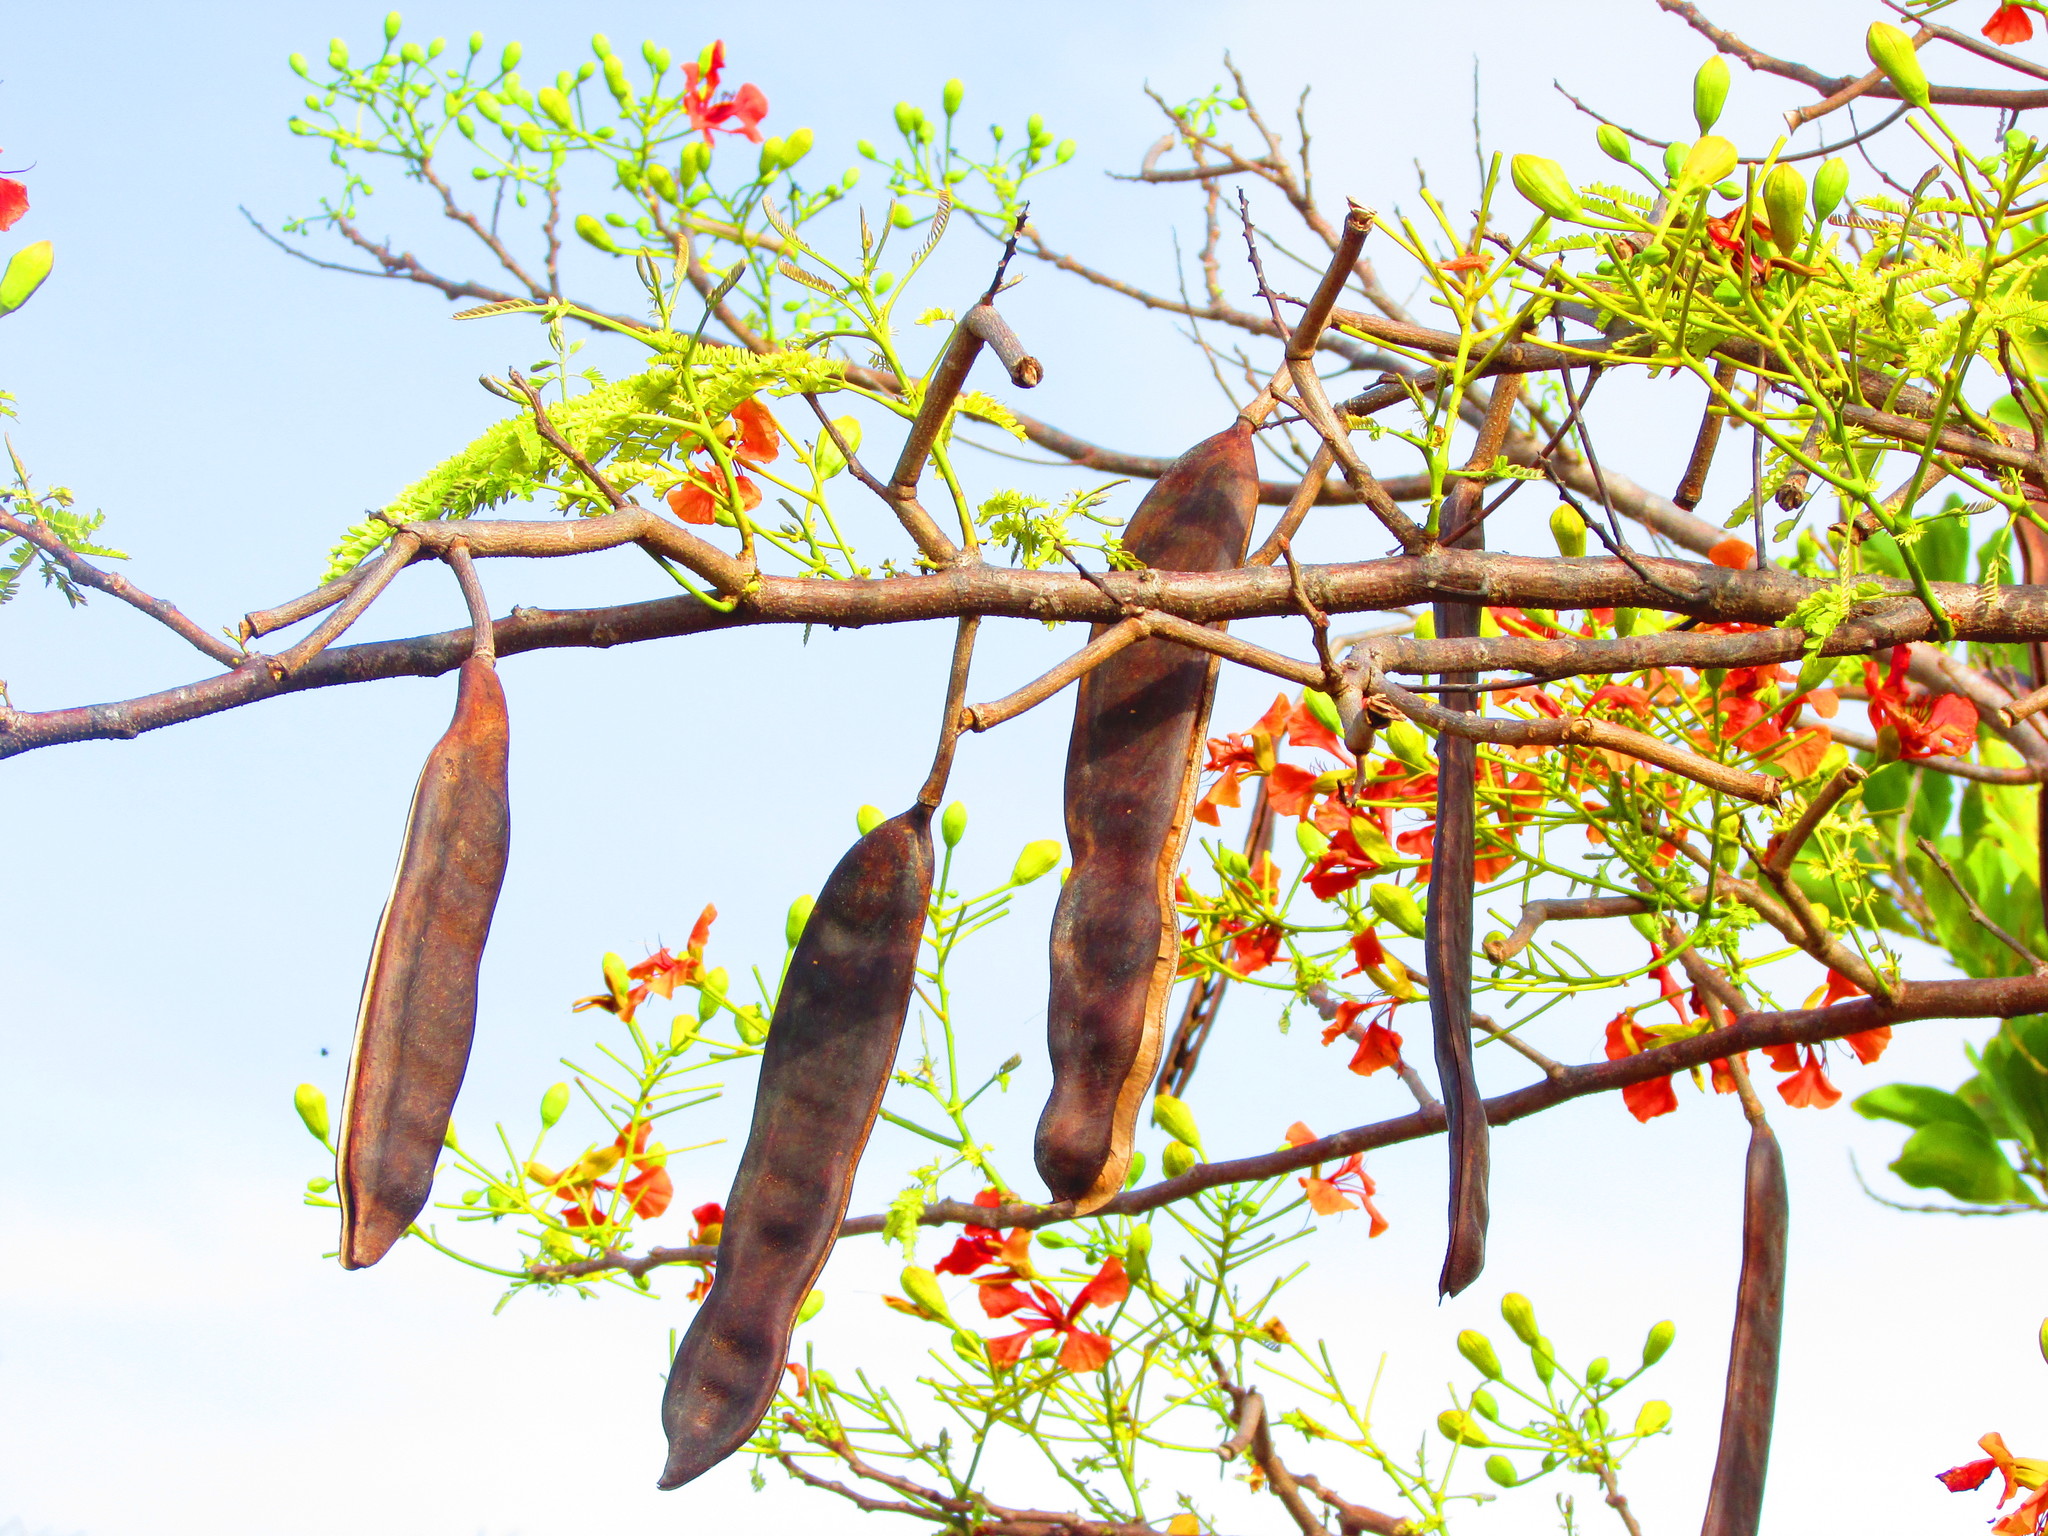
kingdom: Plantae
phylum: Tracheophyta
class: Magnoliopsida
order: Fabales
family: Fabaceae
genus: Delonix
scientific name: Delonix regia
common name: Royal poinciana
